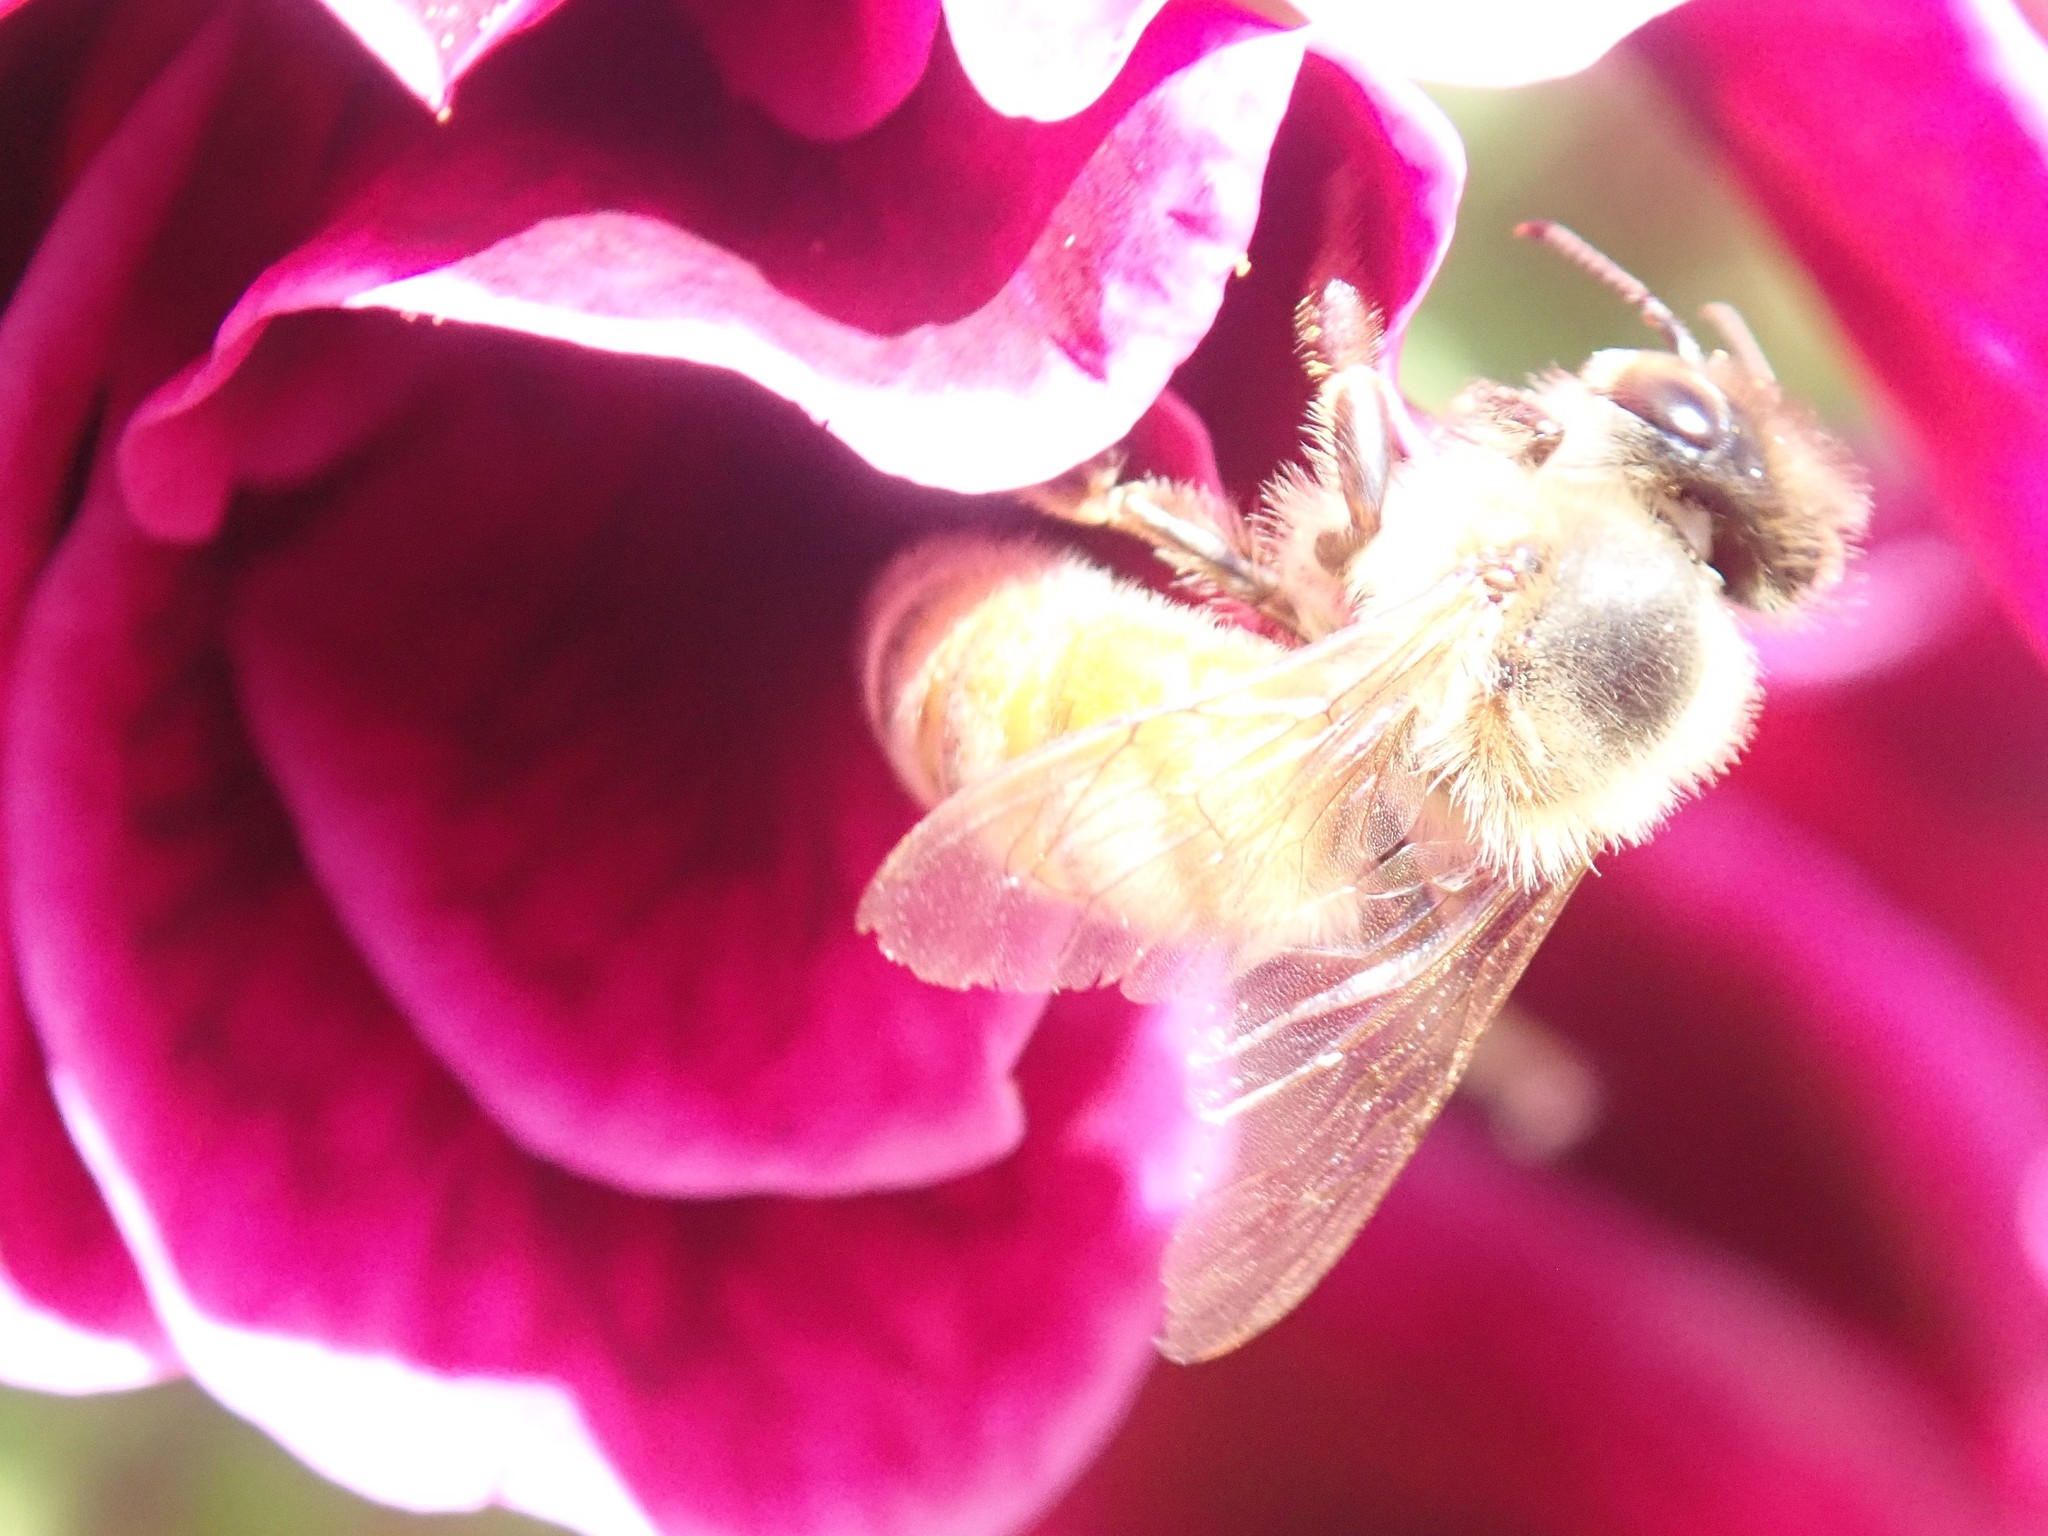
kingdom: Animalia
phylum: Arthropoda
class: Insecta
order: Hymenoptera
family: Apidae
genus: Apis
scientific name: Apis mellifera
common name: Honey bee
